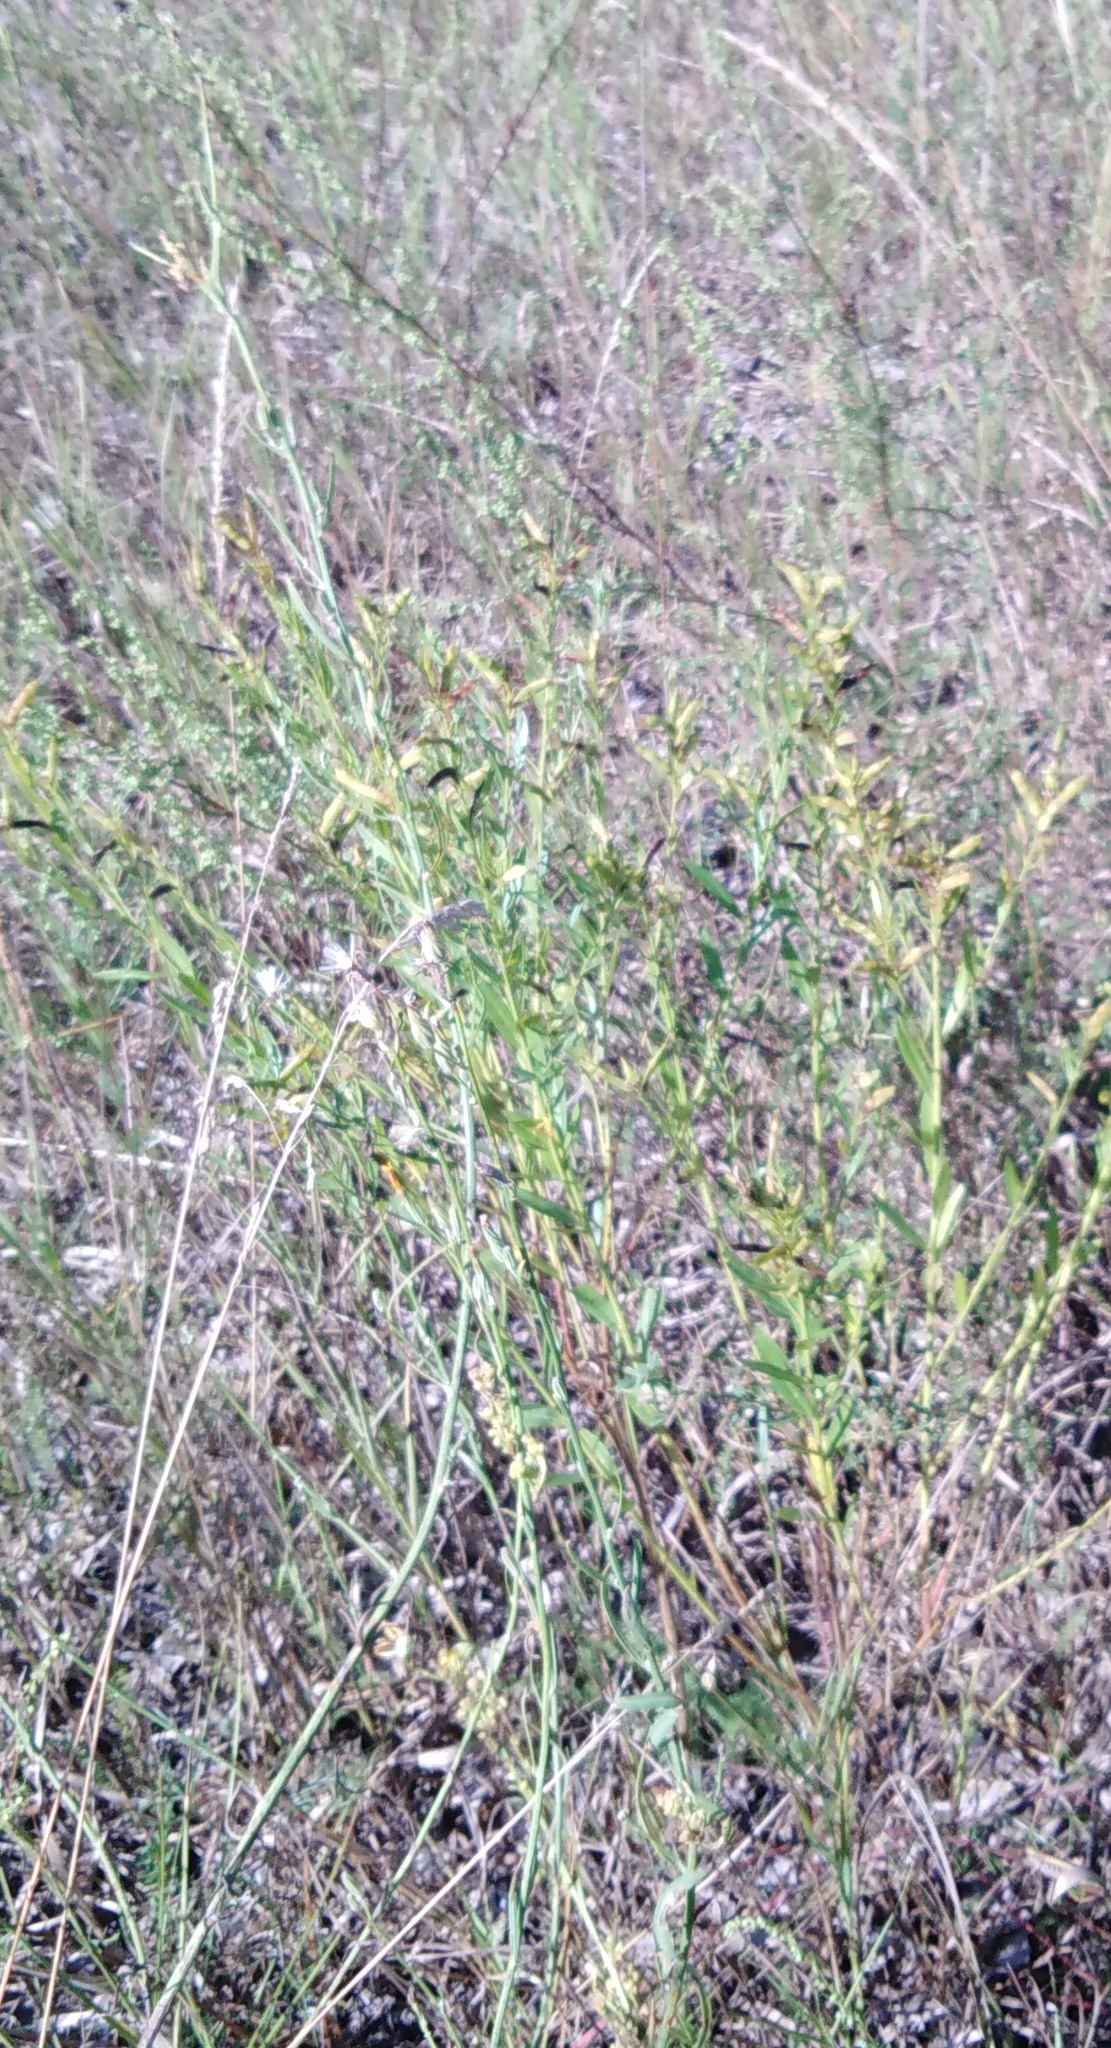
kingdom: Plantae
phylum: Tracheophyta
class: Magnoliopsida
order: Fabales
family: Fabaceae
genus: Genista
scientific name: Genista tinctoria
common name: Dyer's greenweed
